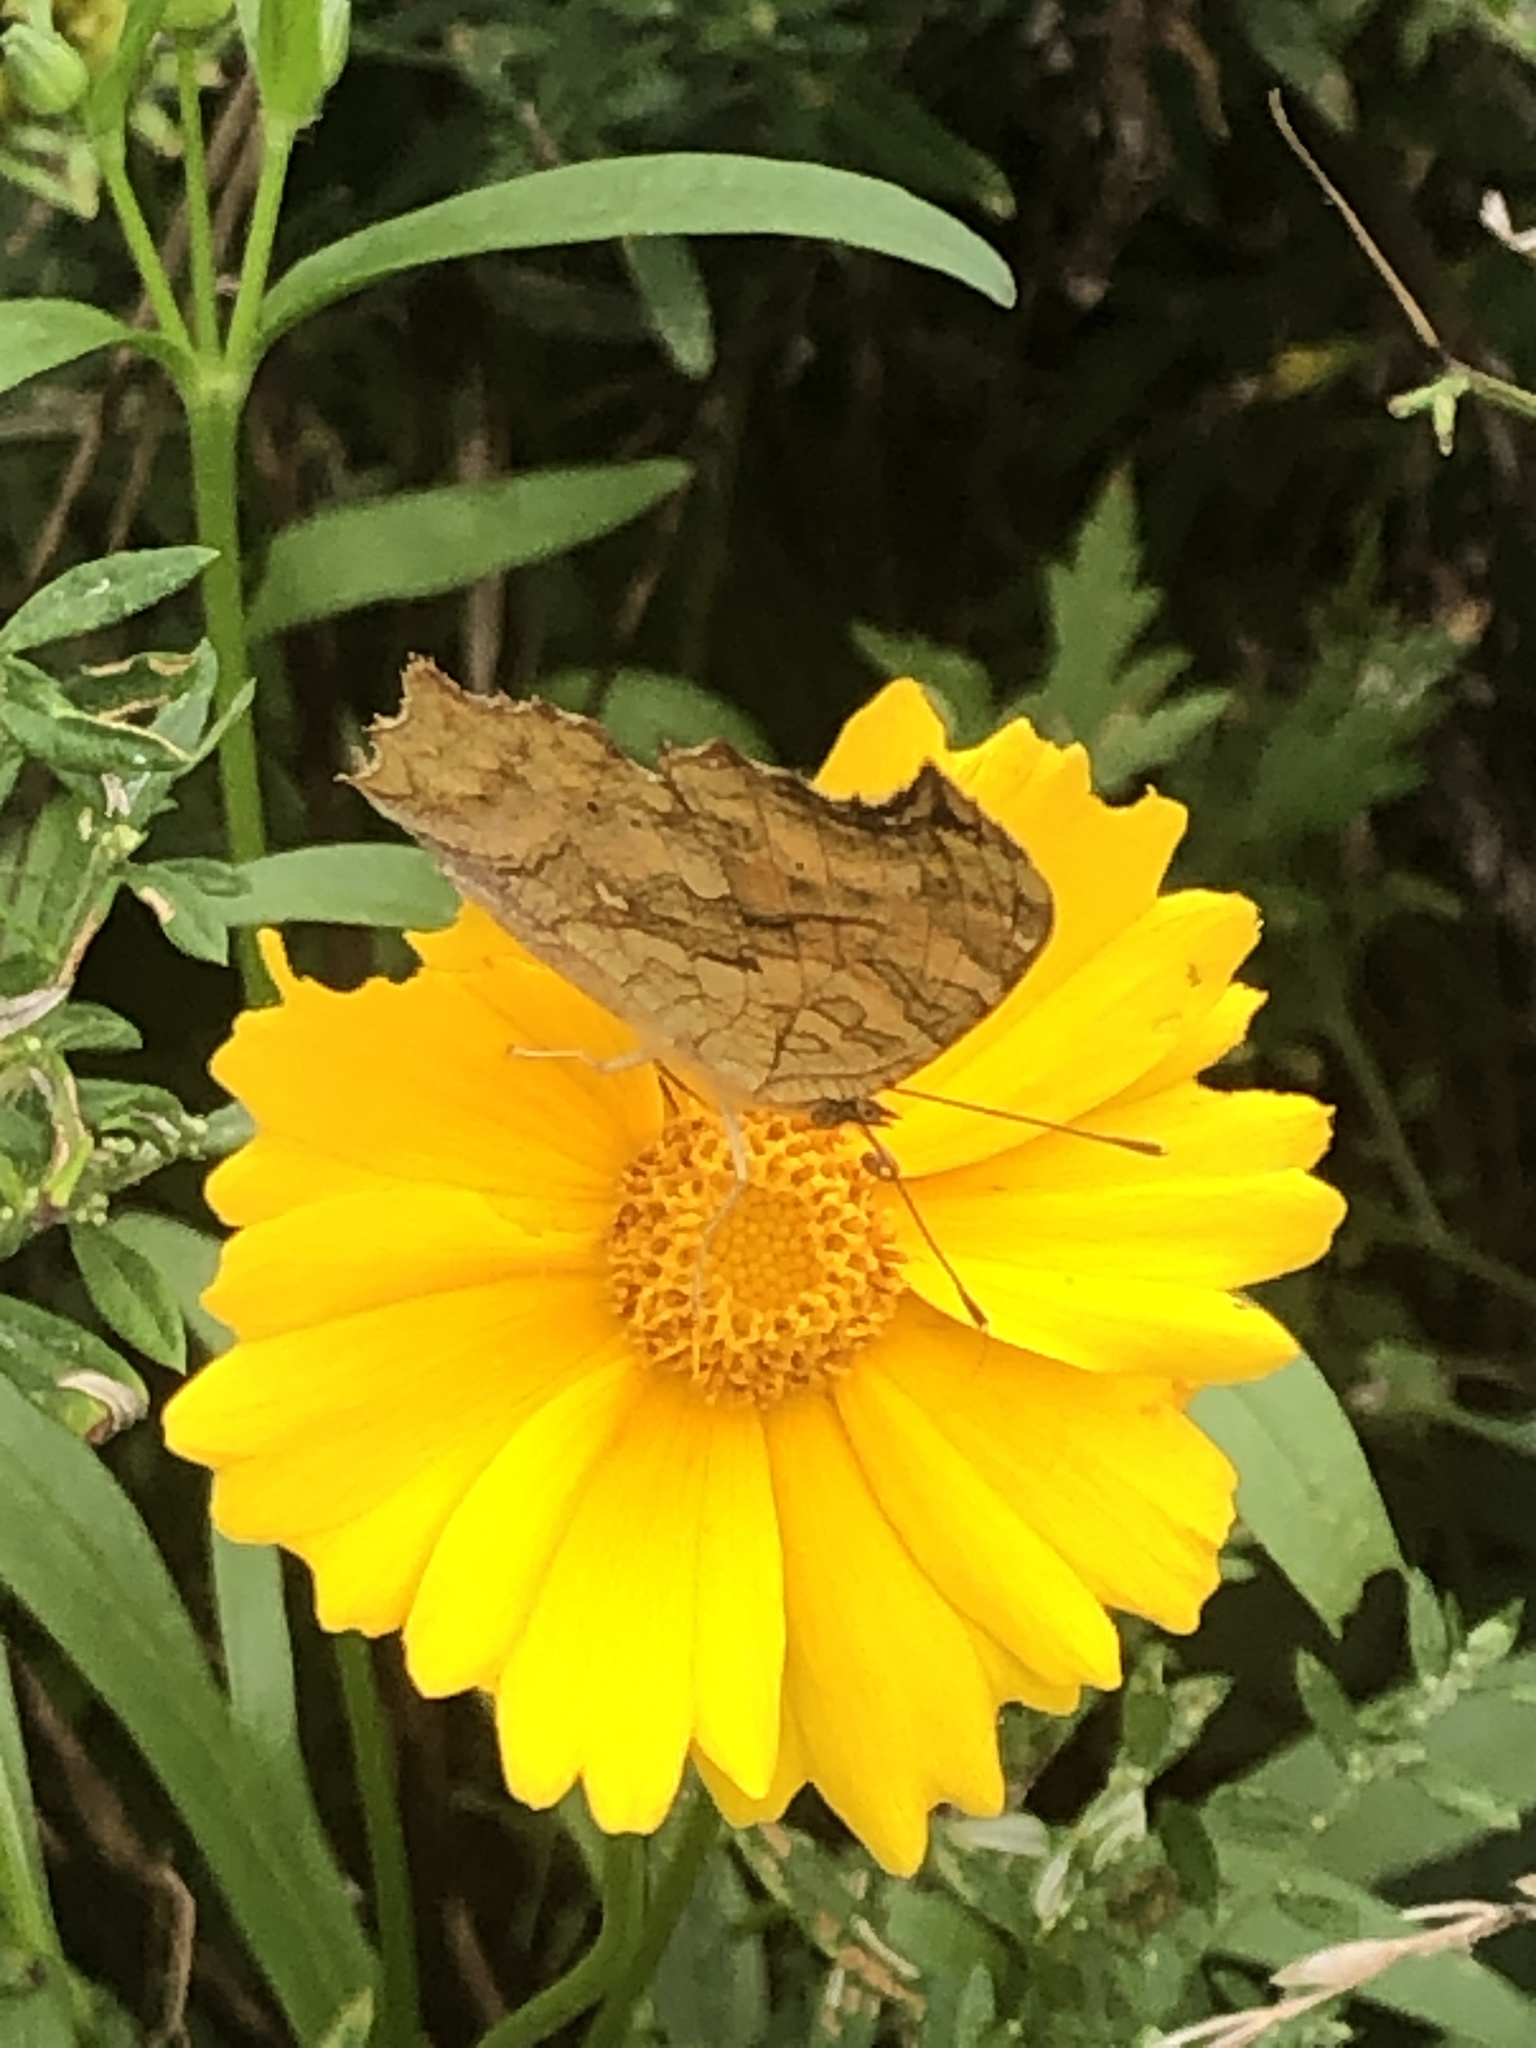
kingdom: Animalia
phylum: Arthropoda
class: Insecta
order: Lepidoptera
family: Nymphalidae
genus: Polygonia
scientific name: Polygonia c-aureum
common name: Asian comma
